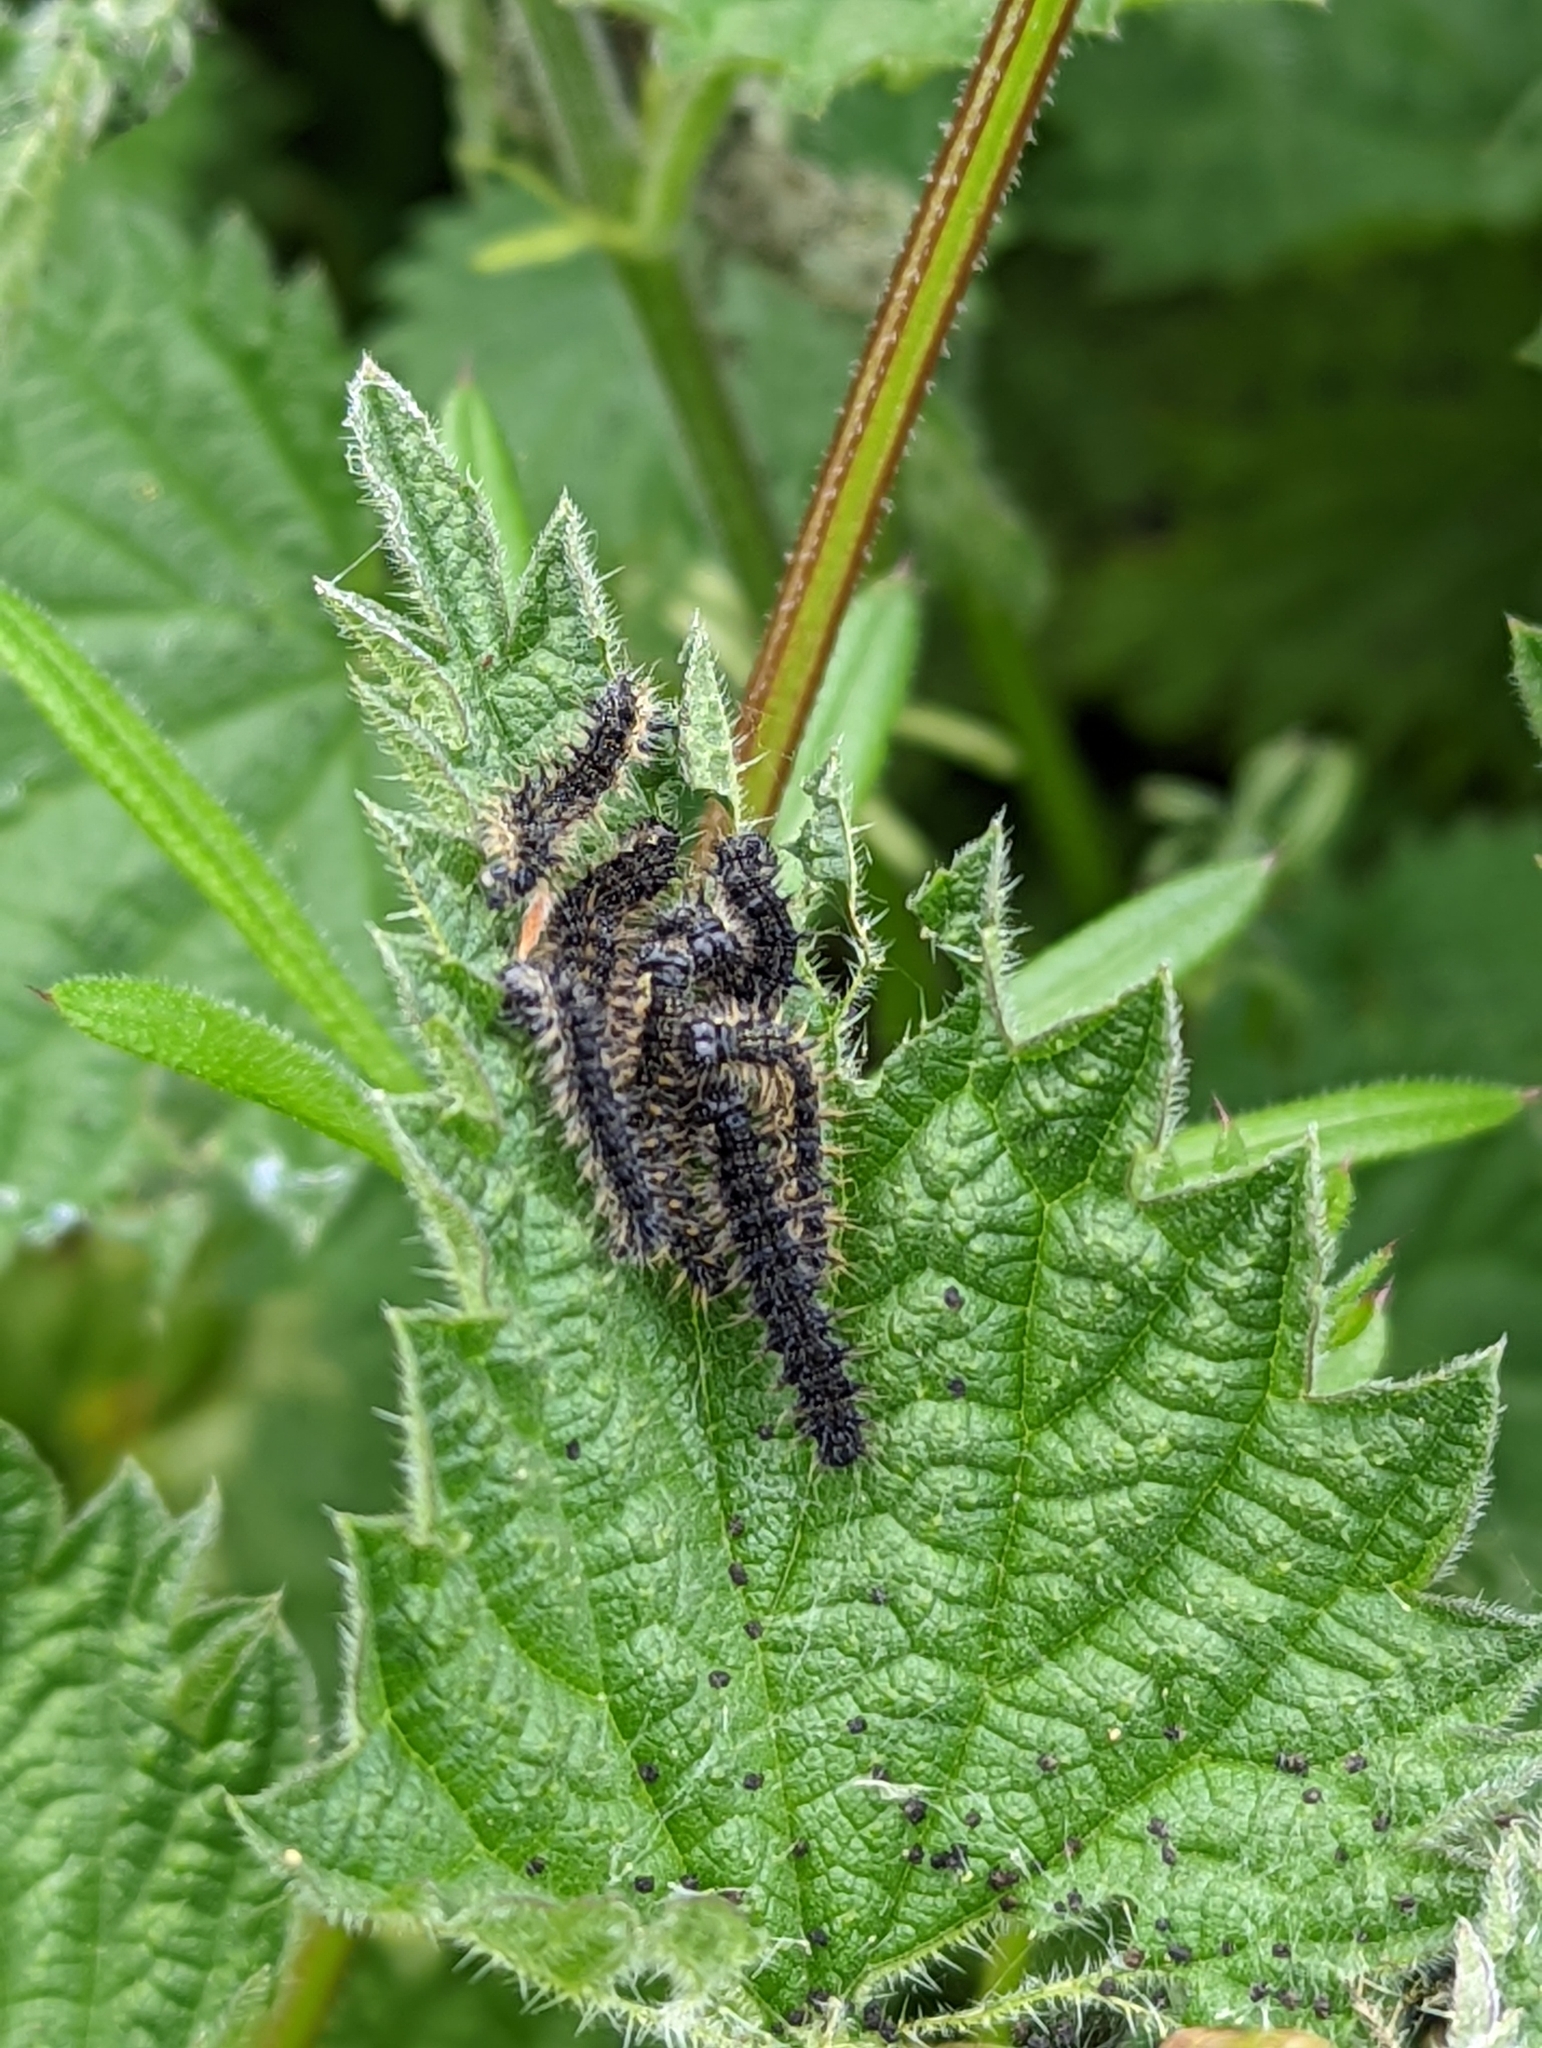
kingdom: Animalia
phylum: Arthropoda
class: Insecta
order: Lepidoptera
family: Nymphalidae
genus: Aglais
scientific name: Aglais urticae
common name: Small tortoiseshell
